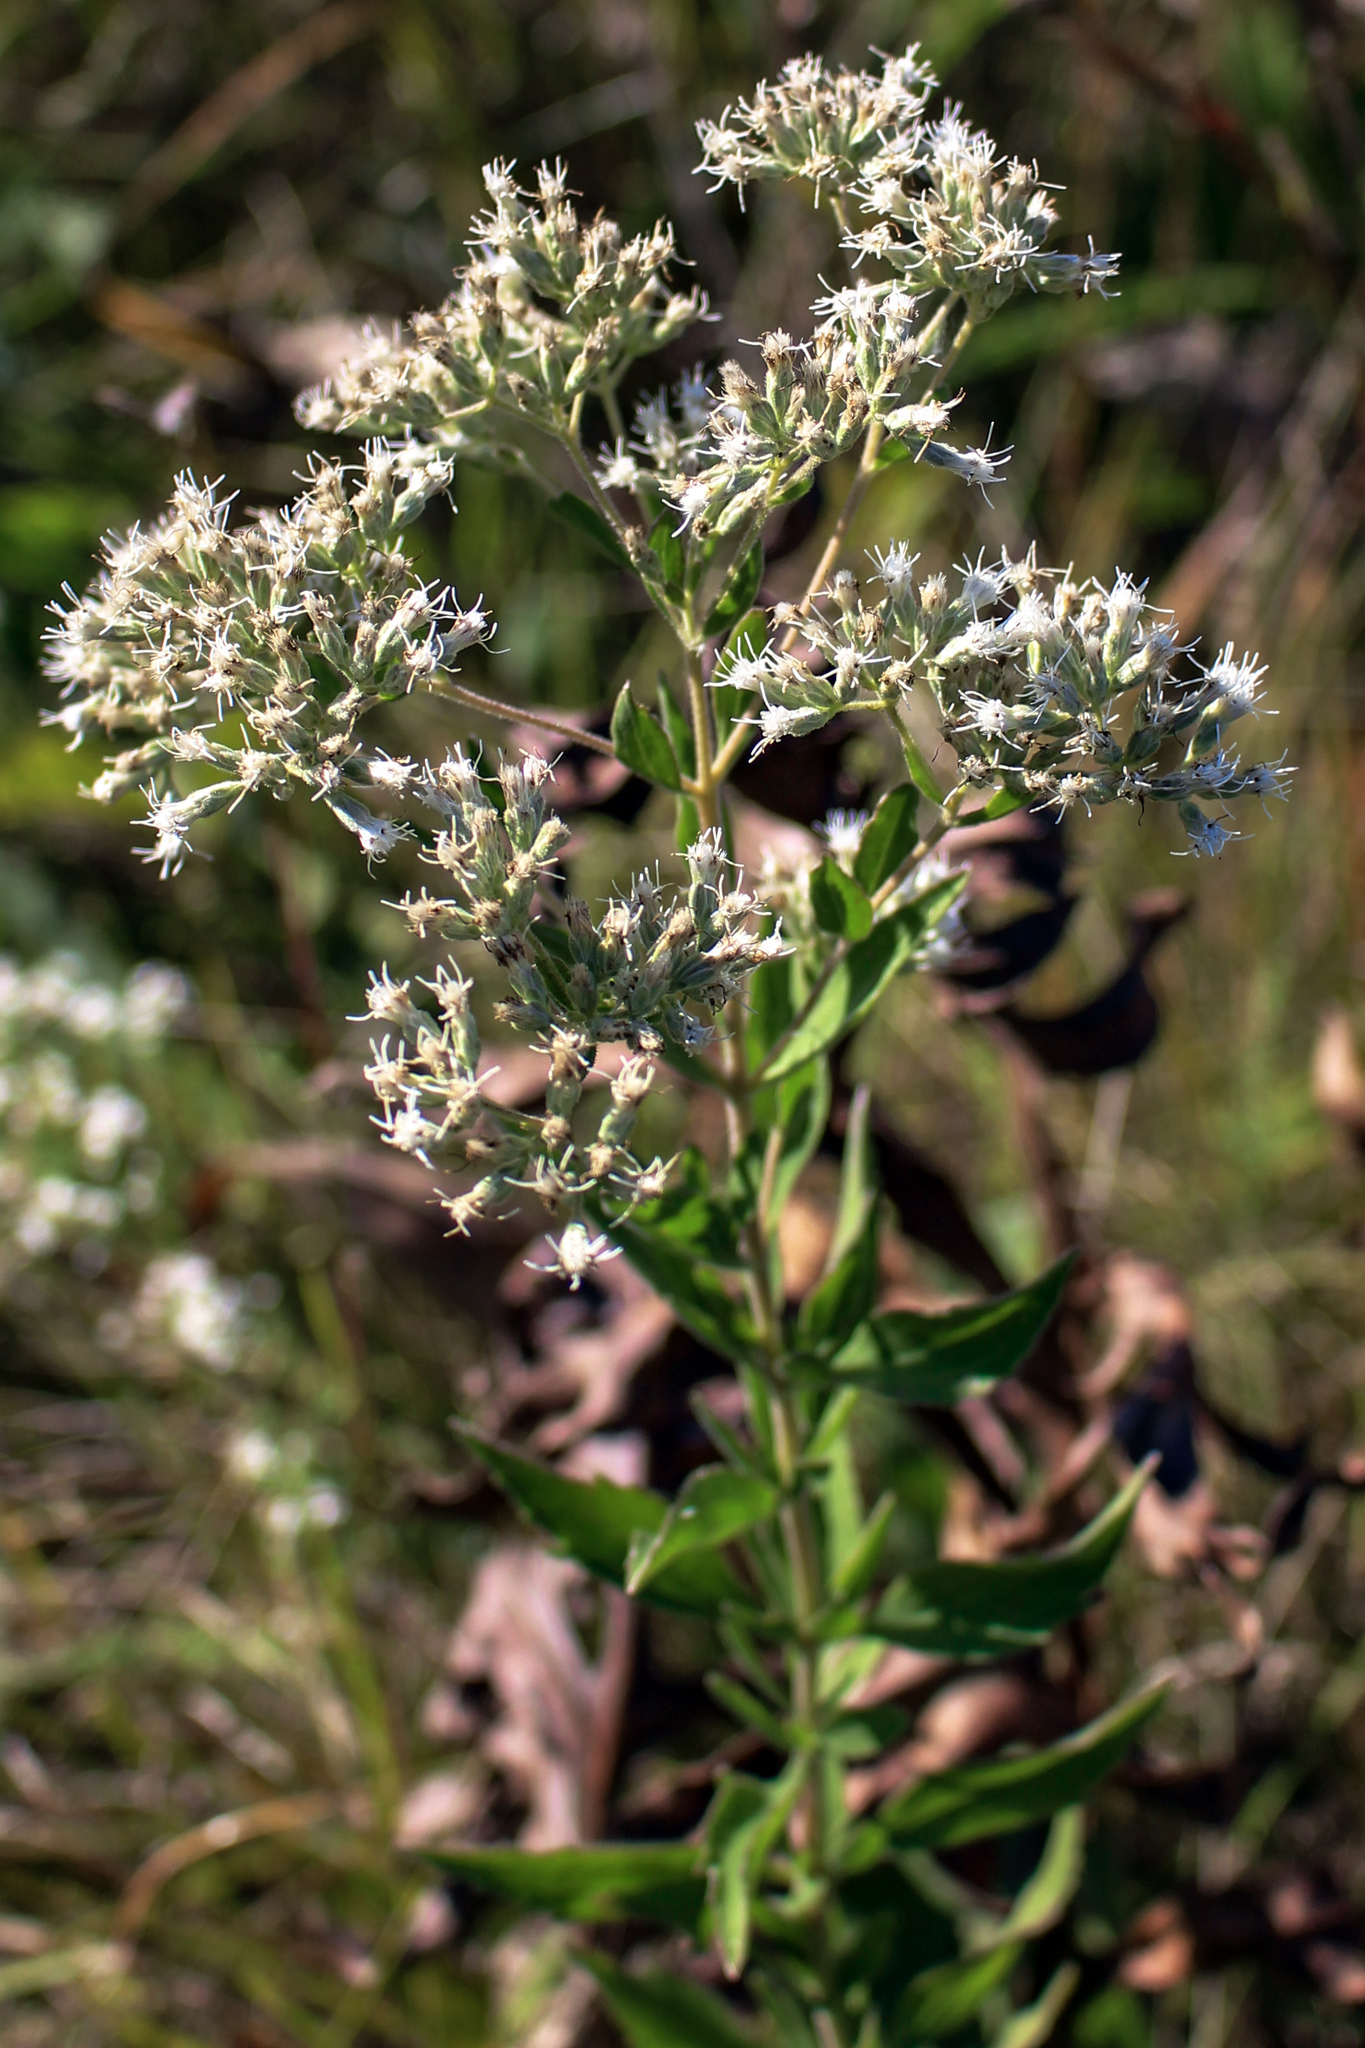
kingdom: Plantae
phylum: Tracheophyta
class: Magnoliopsida
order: Asterales
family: Asteraceae
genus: Brickellia
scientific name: Brickellia eupatorioides
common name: False boneset
